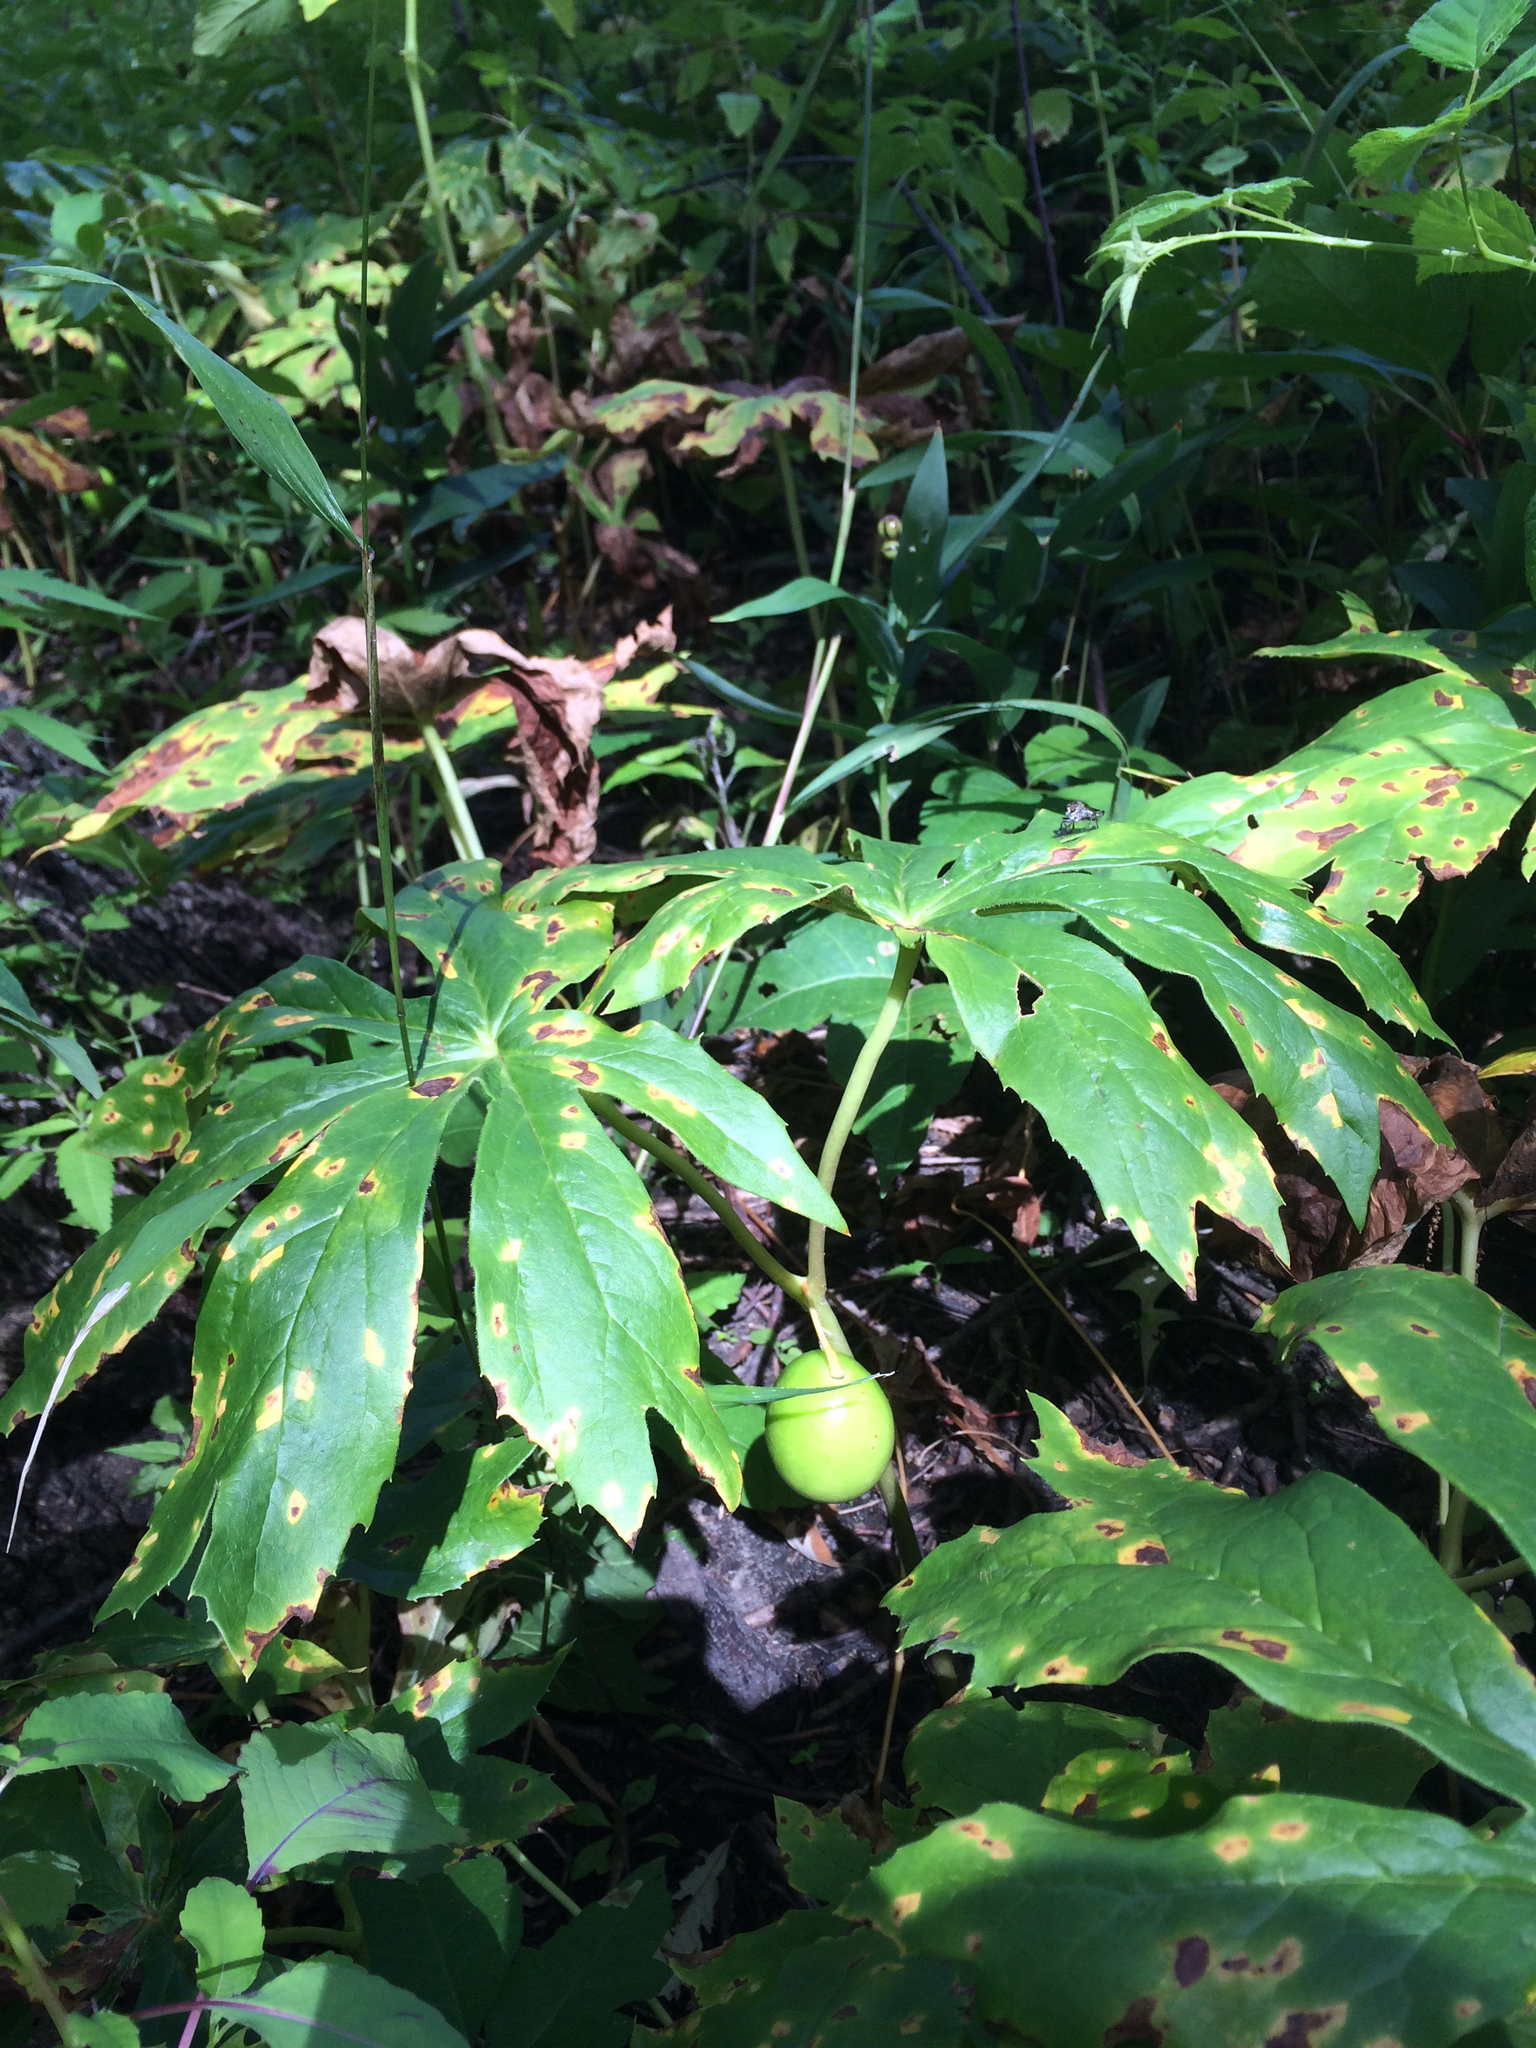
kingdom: Plantae
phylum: Tracheophyta
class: Magnoliopsida
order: Ranunculales
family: Berberidaceae
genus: Podophyllum
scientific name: Podophyllum peltatum
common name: Wild mandrake
